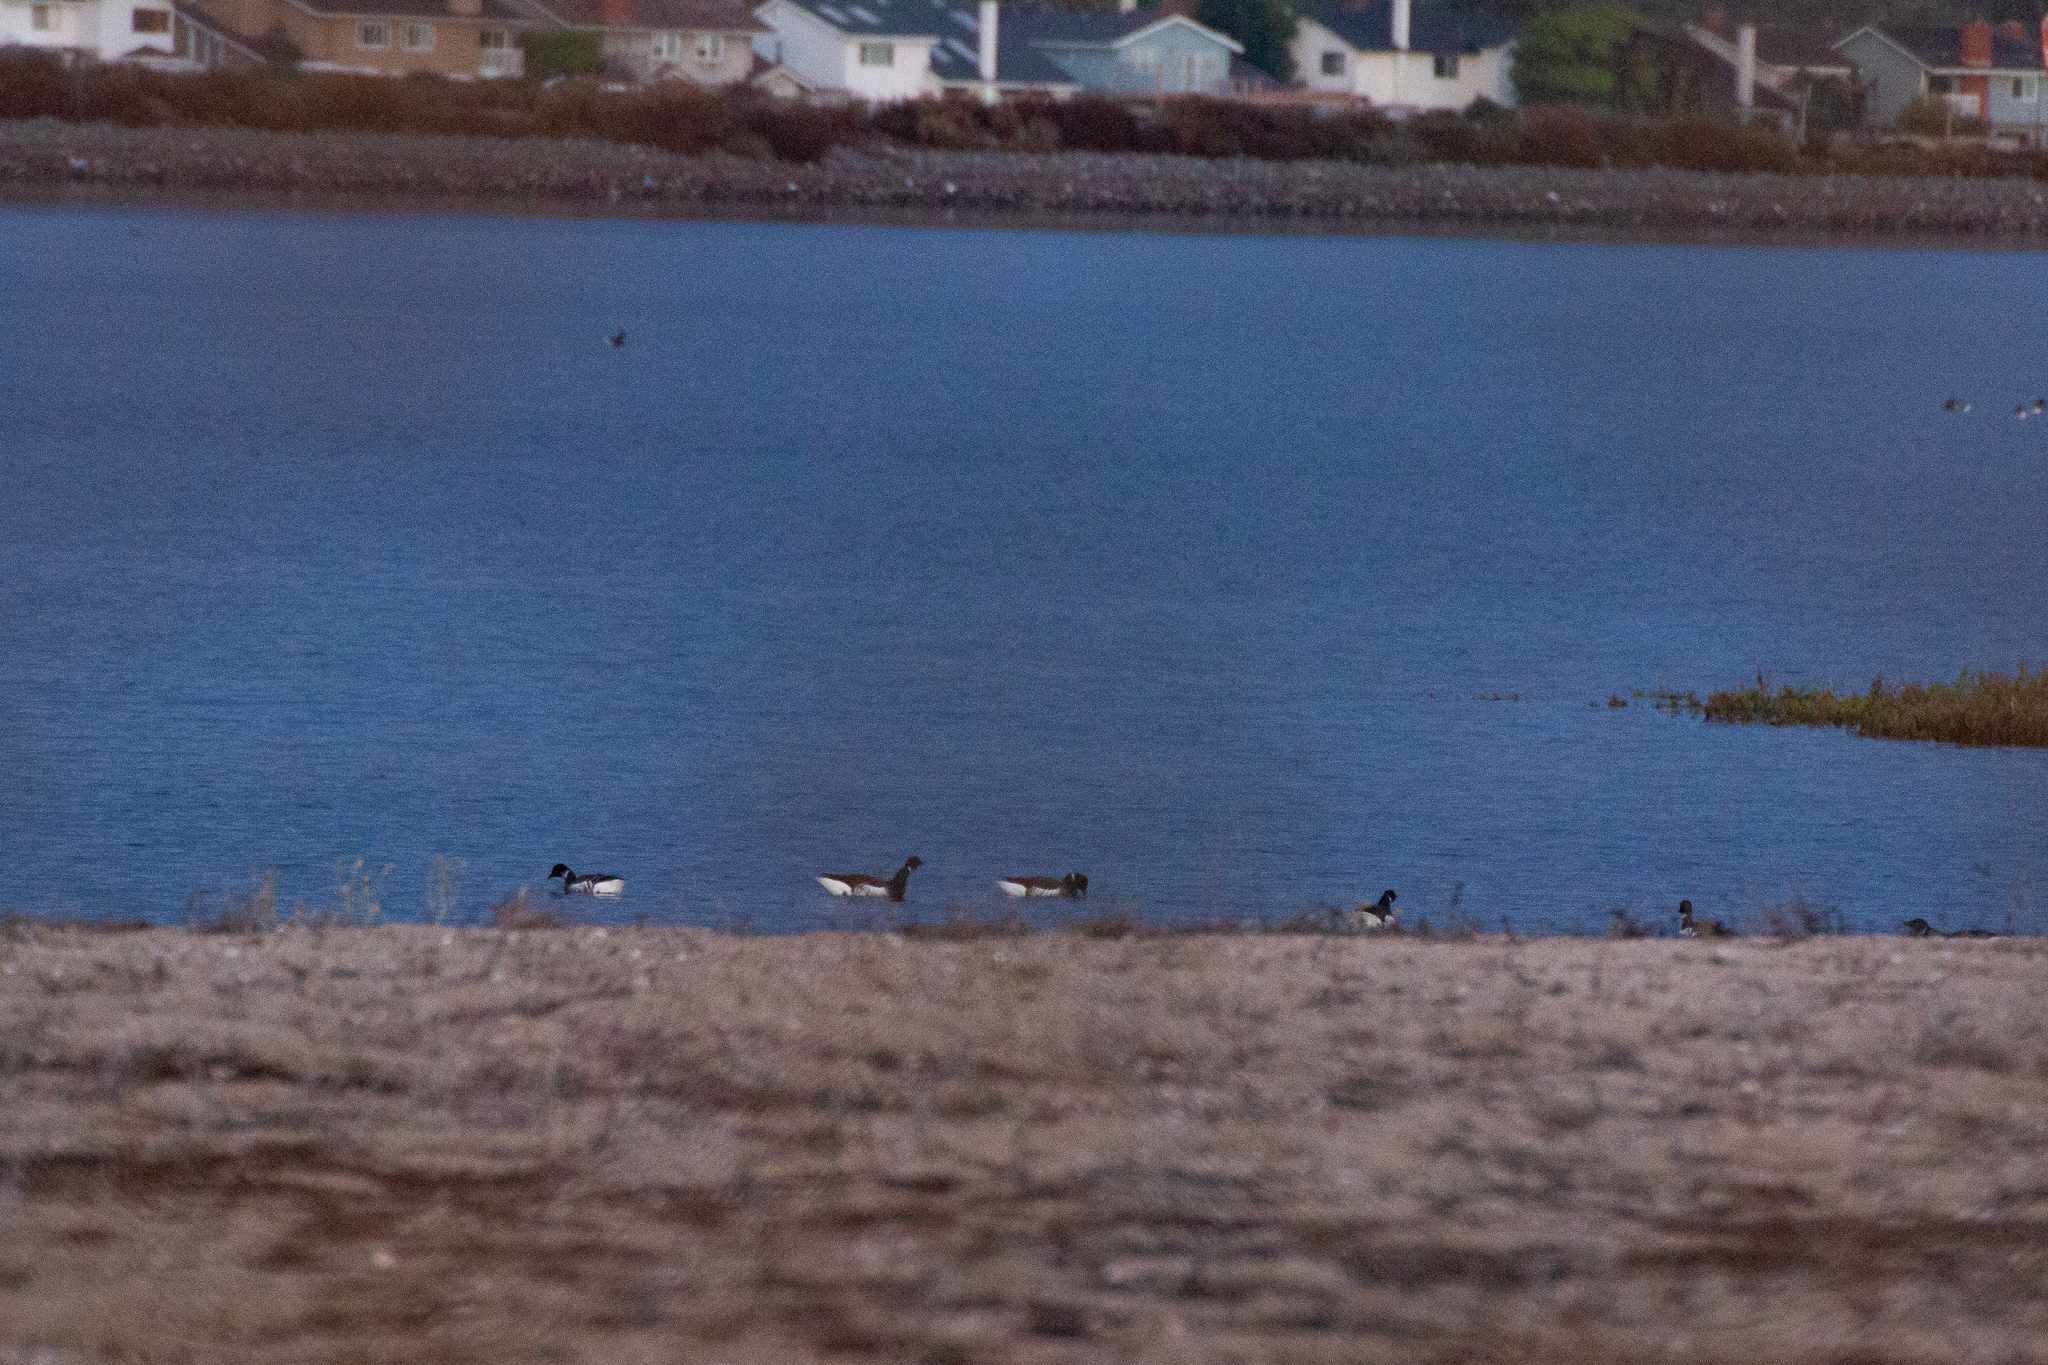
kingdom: Animalia
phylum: Chordata
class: Aves
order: Anseriformes
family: Anatidae
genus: Branta
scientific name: Branta bernicla
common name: Brant goose
